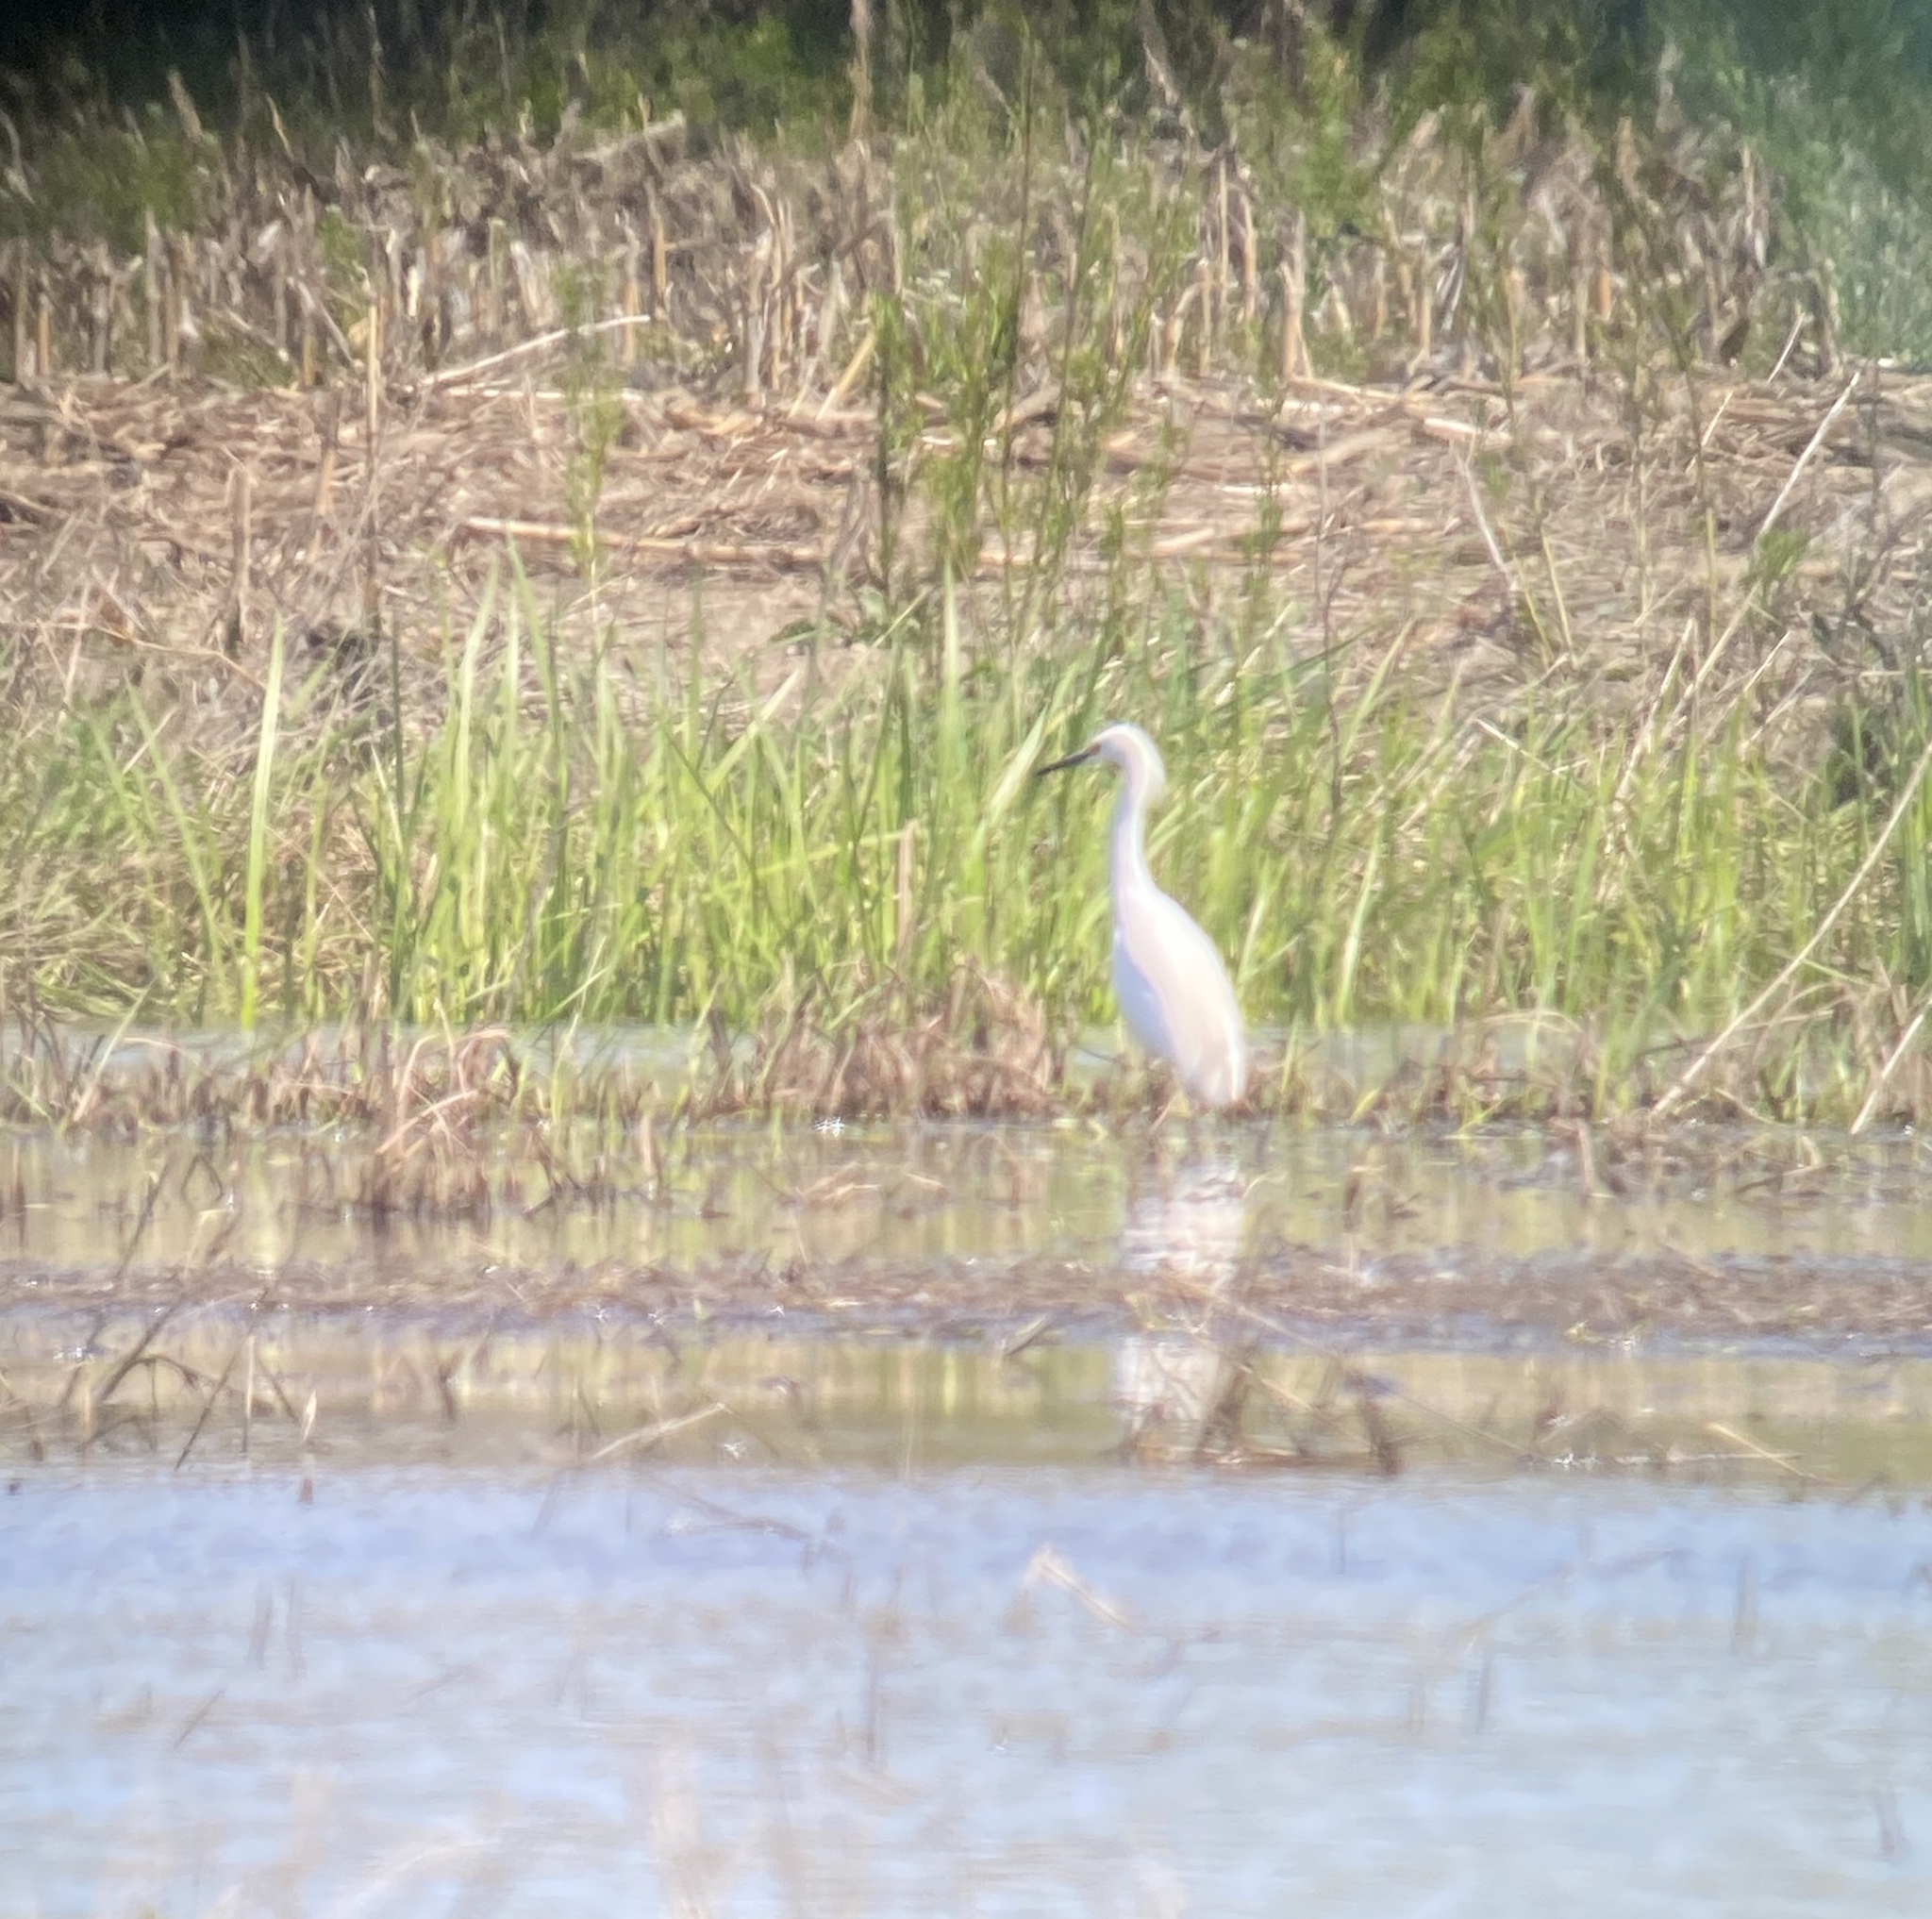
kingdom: Animalia
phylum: Chordata
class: Aves
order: Pelecaniformes
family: Ardeidae
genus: Egretta
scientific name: Egretta thula
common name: Snowy egret
